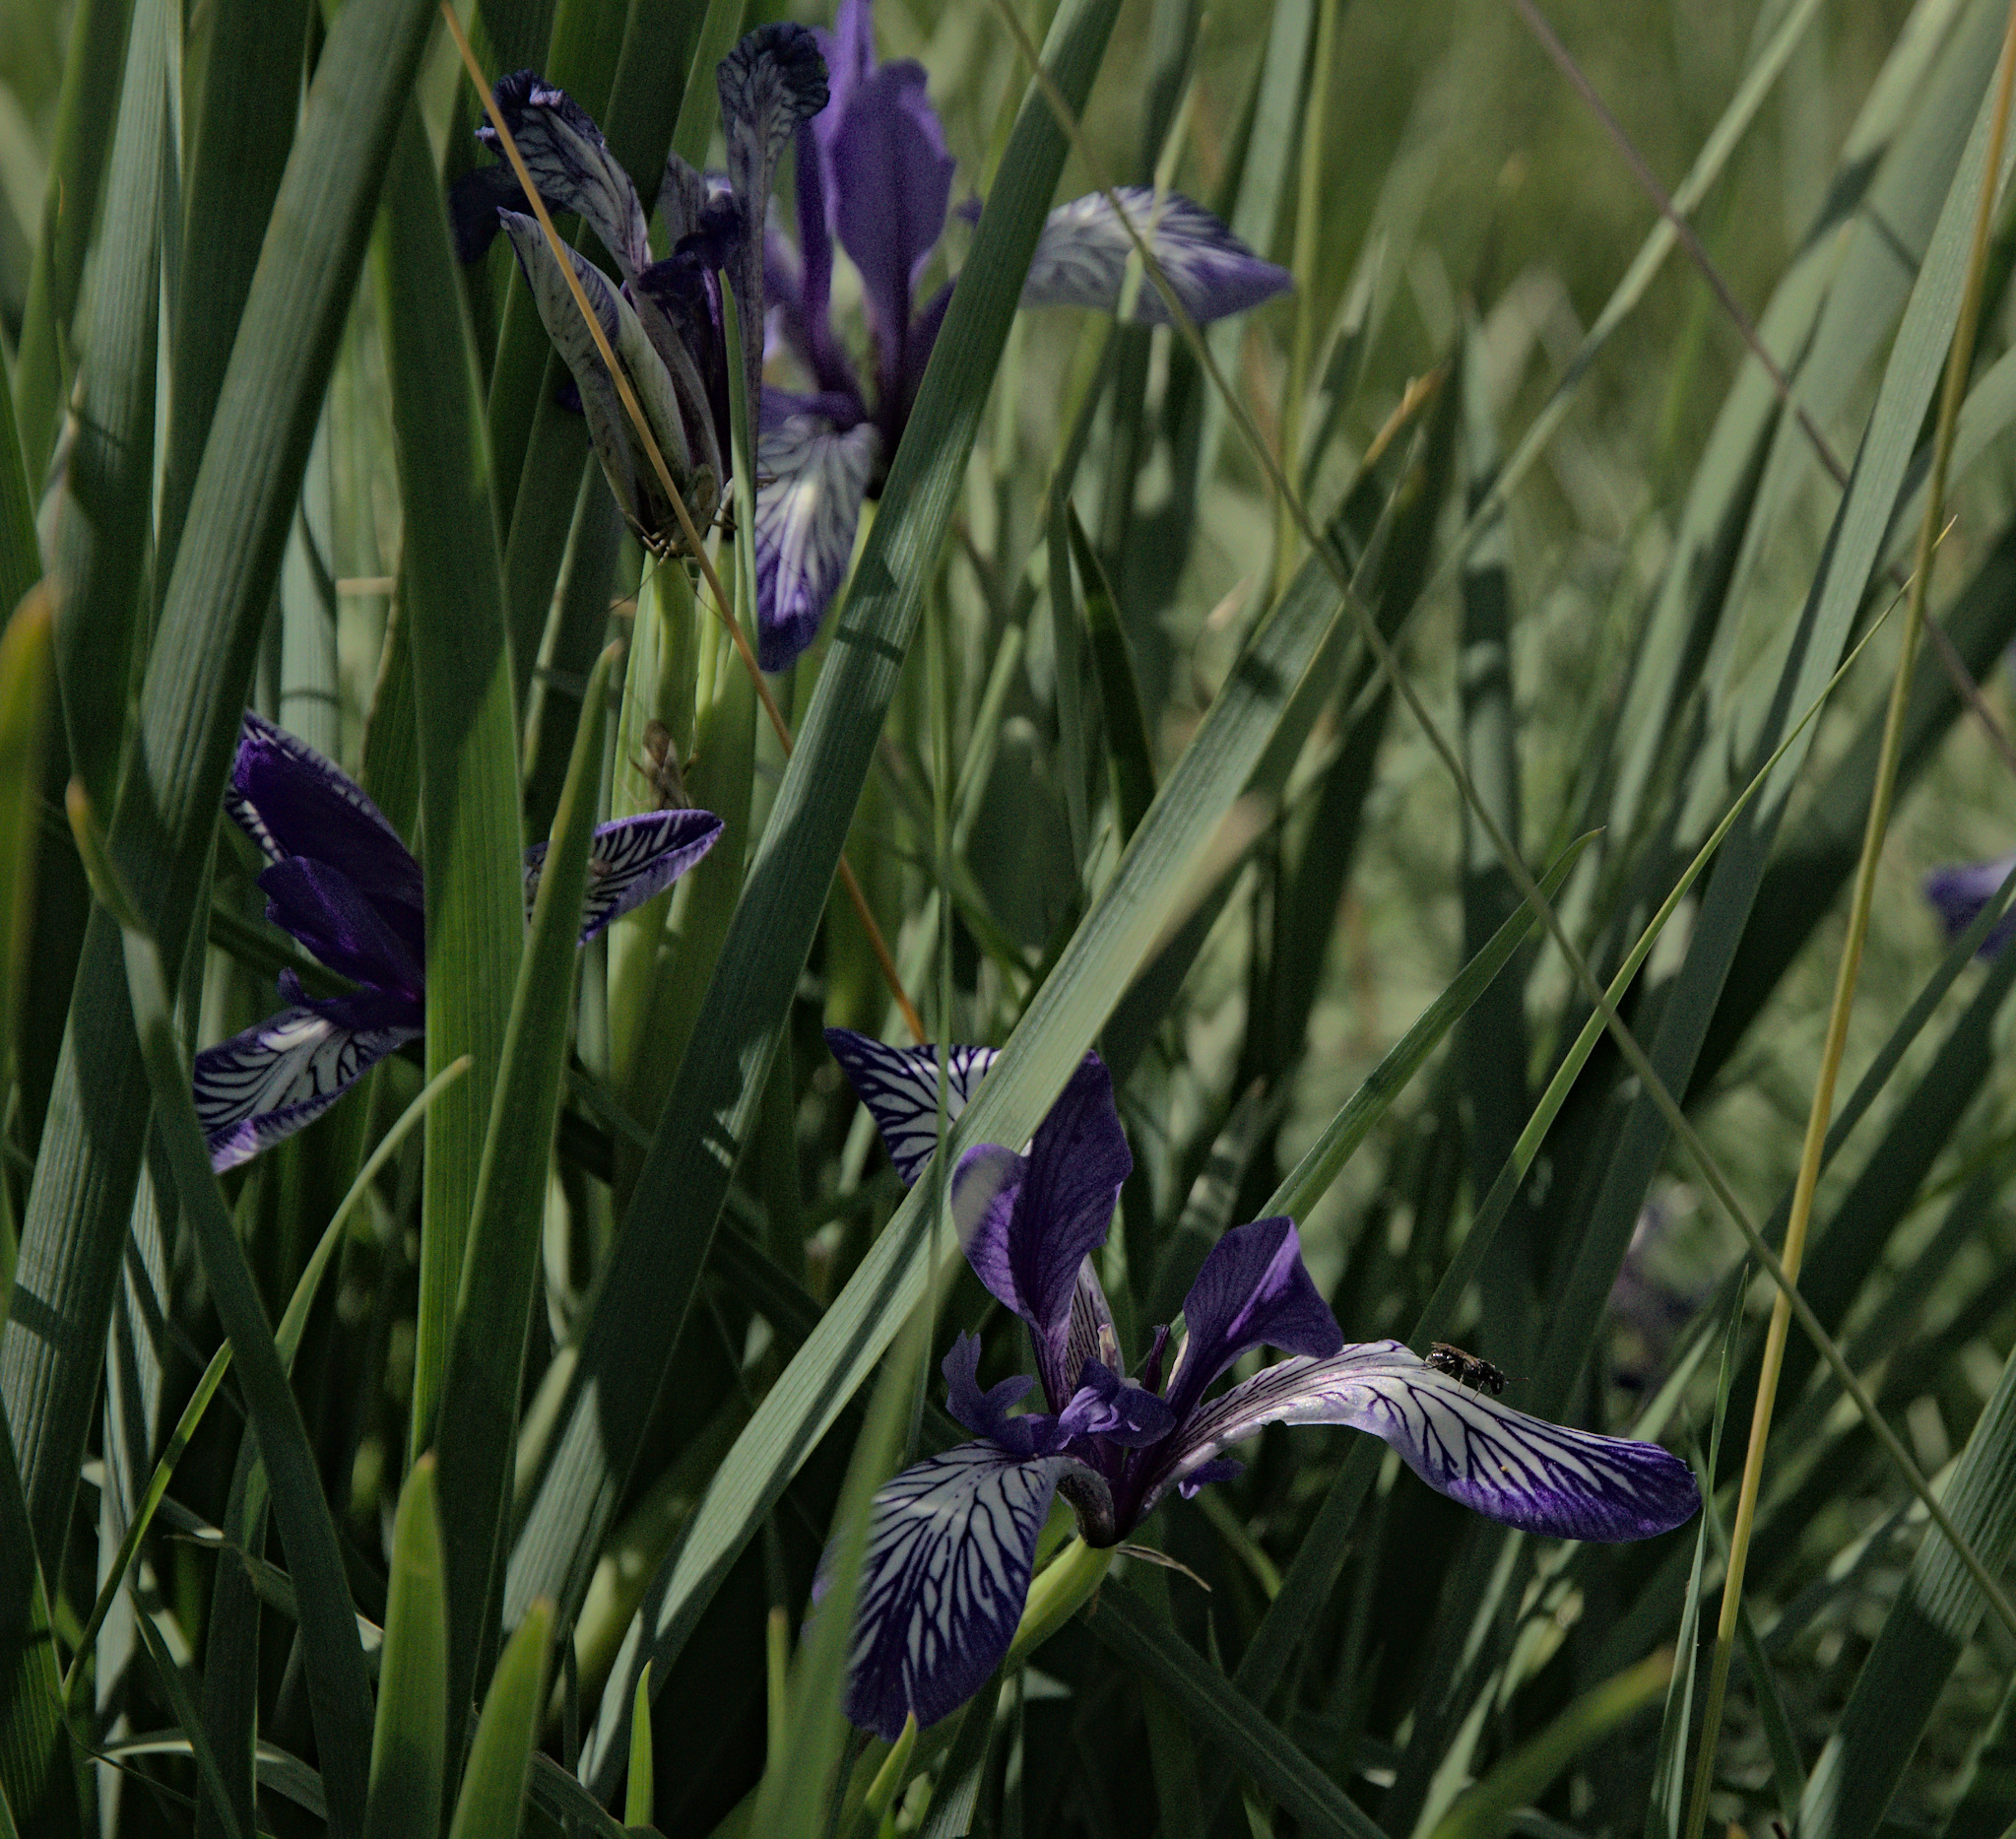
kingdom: Plantae
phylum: Tracheophyta
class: Liliopsida
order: Asparagales
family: Iridaceae
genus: Iris
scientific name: Iris lactea
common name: White-flower chinese iris
